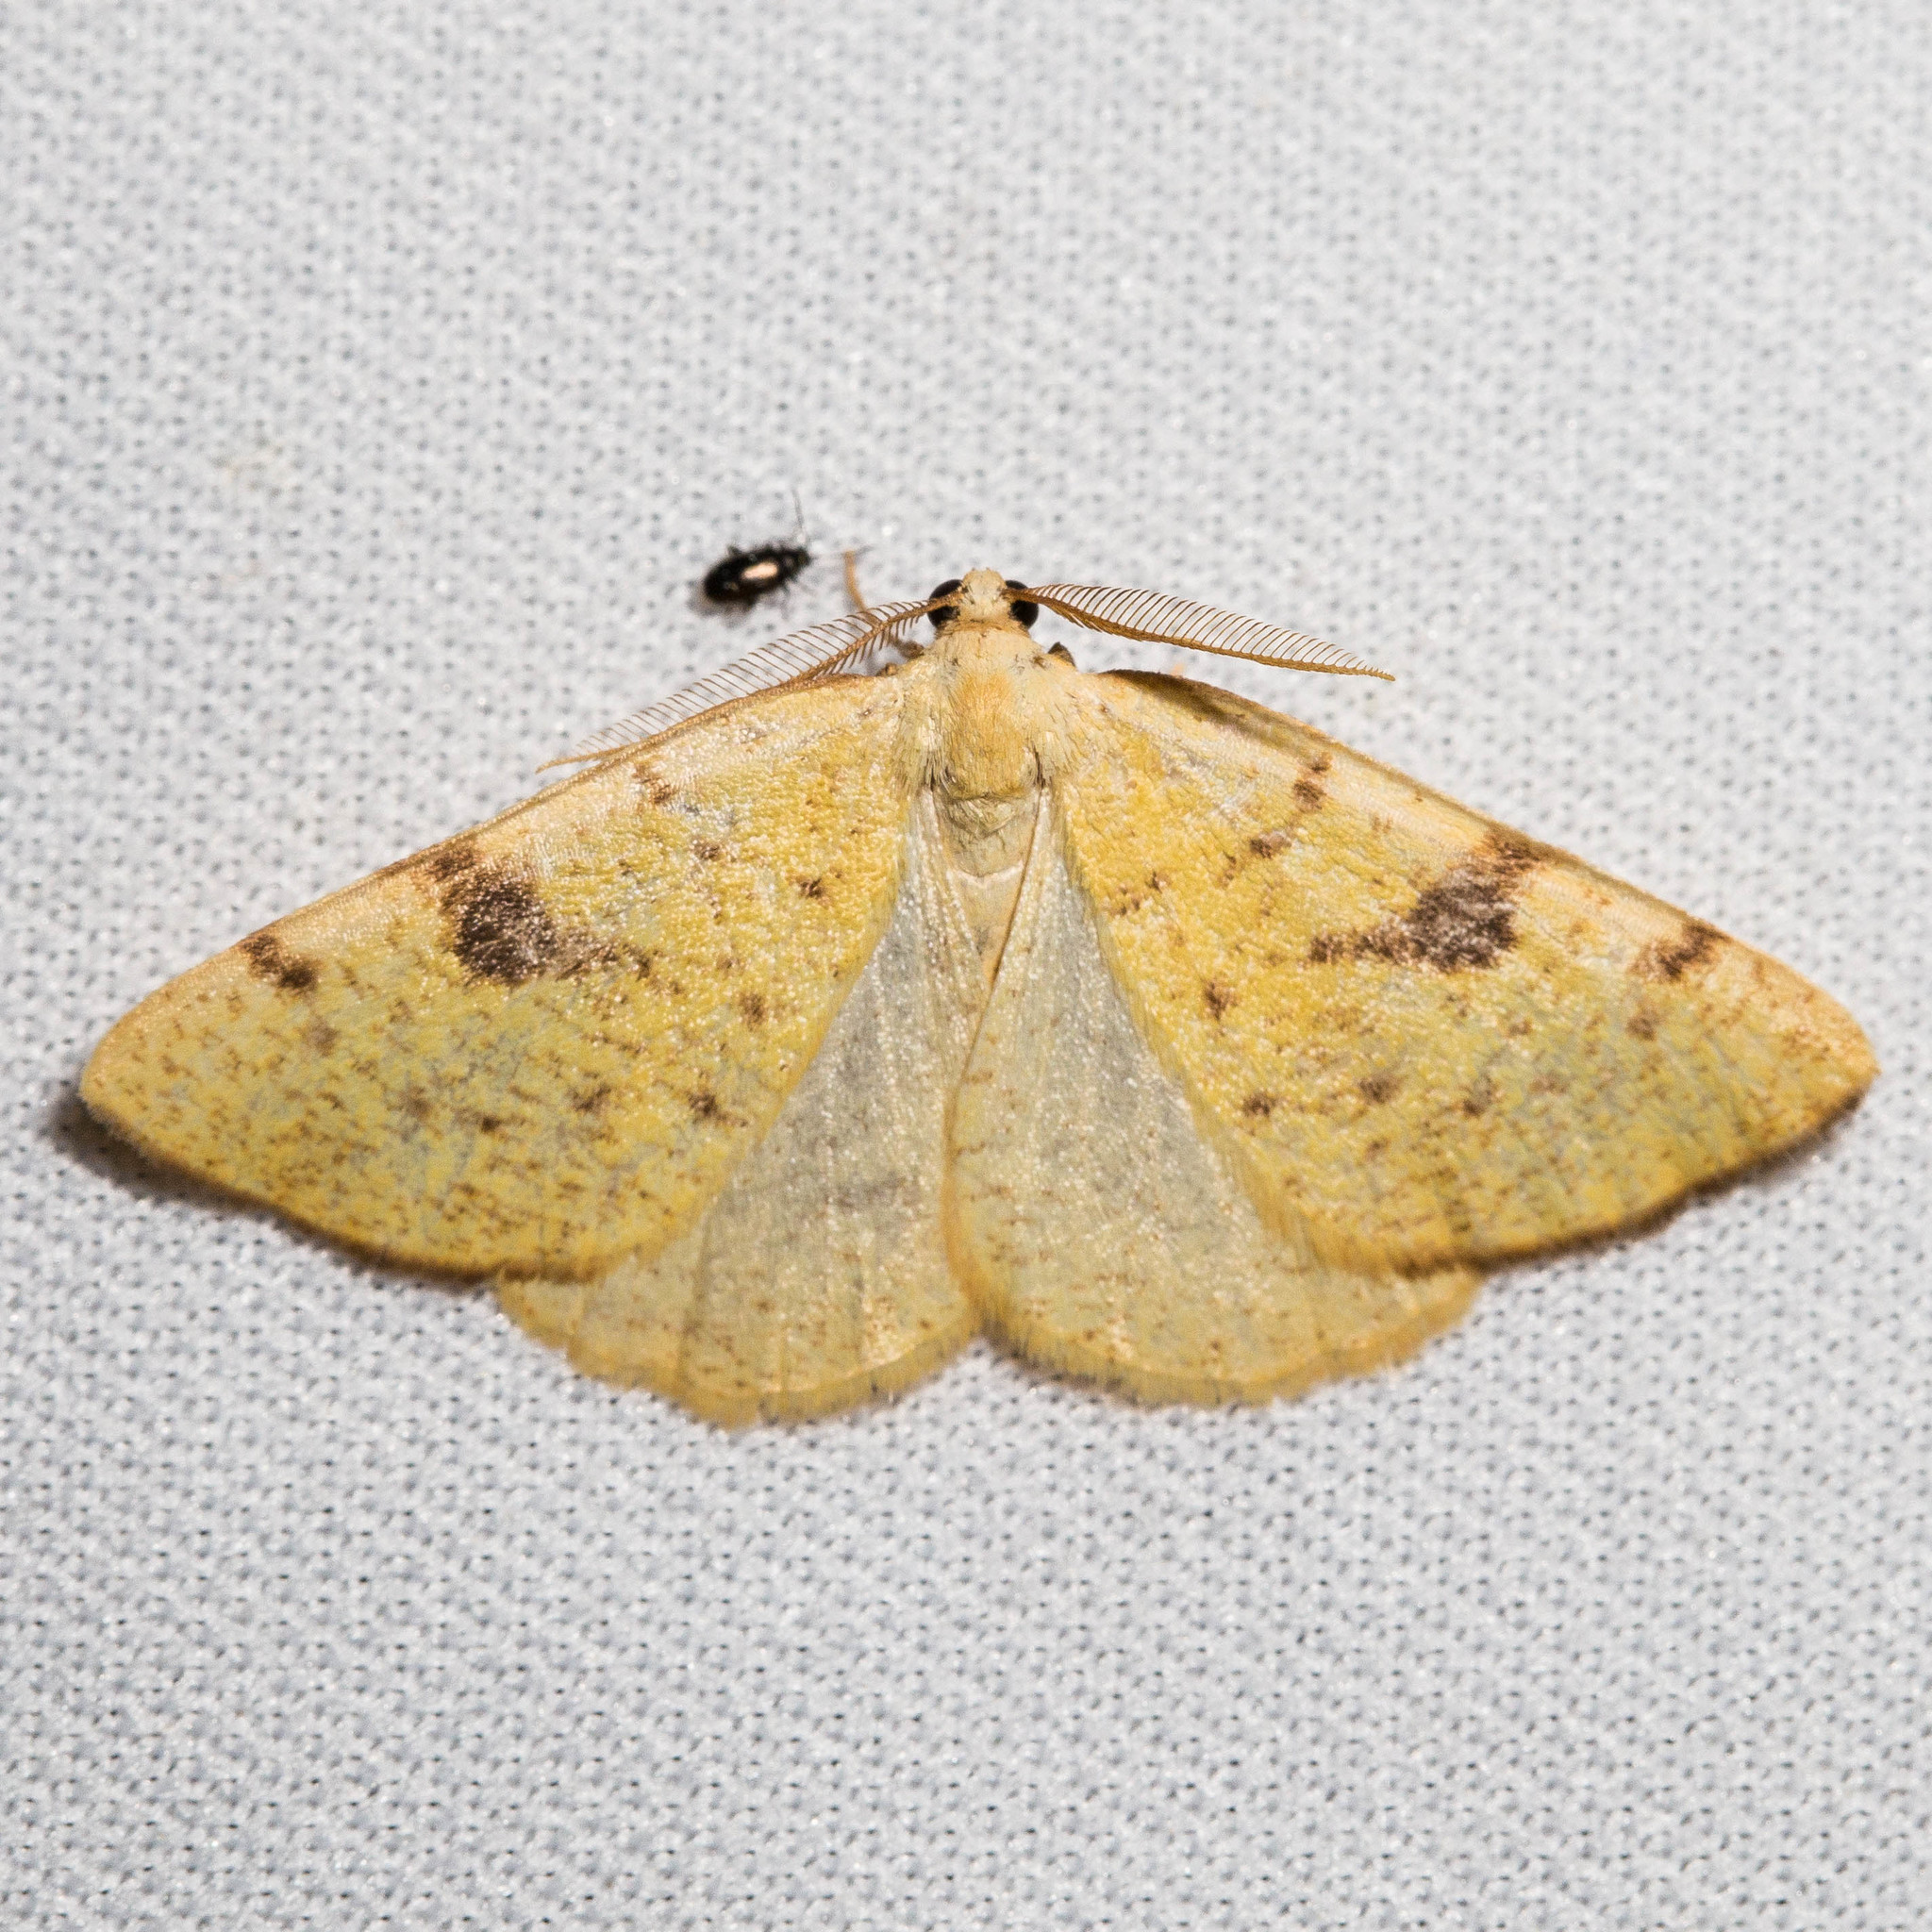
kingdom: Animalia
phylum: Arthropoda
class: Insecta
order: Lepidoptera
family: Geometridae
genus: Hesperumia
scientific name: Hesperumia sulphuraria
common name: Sulphur moth
